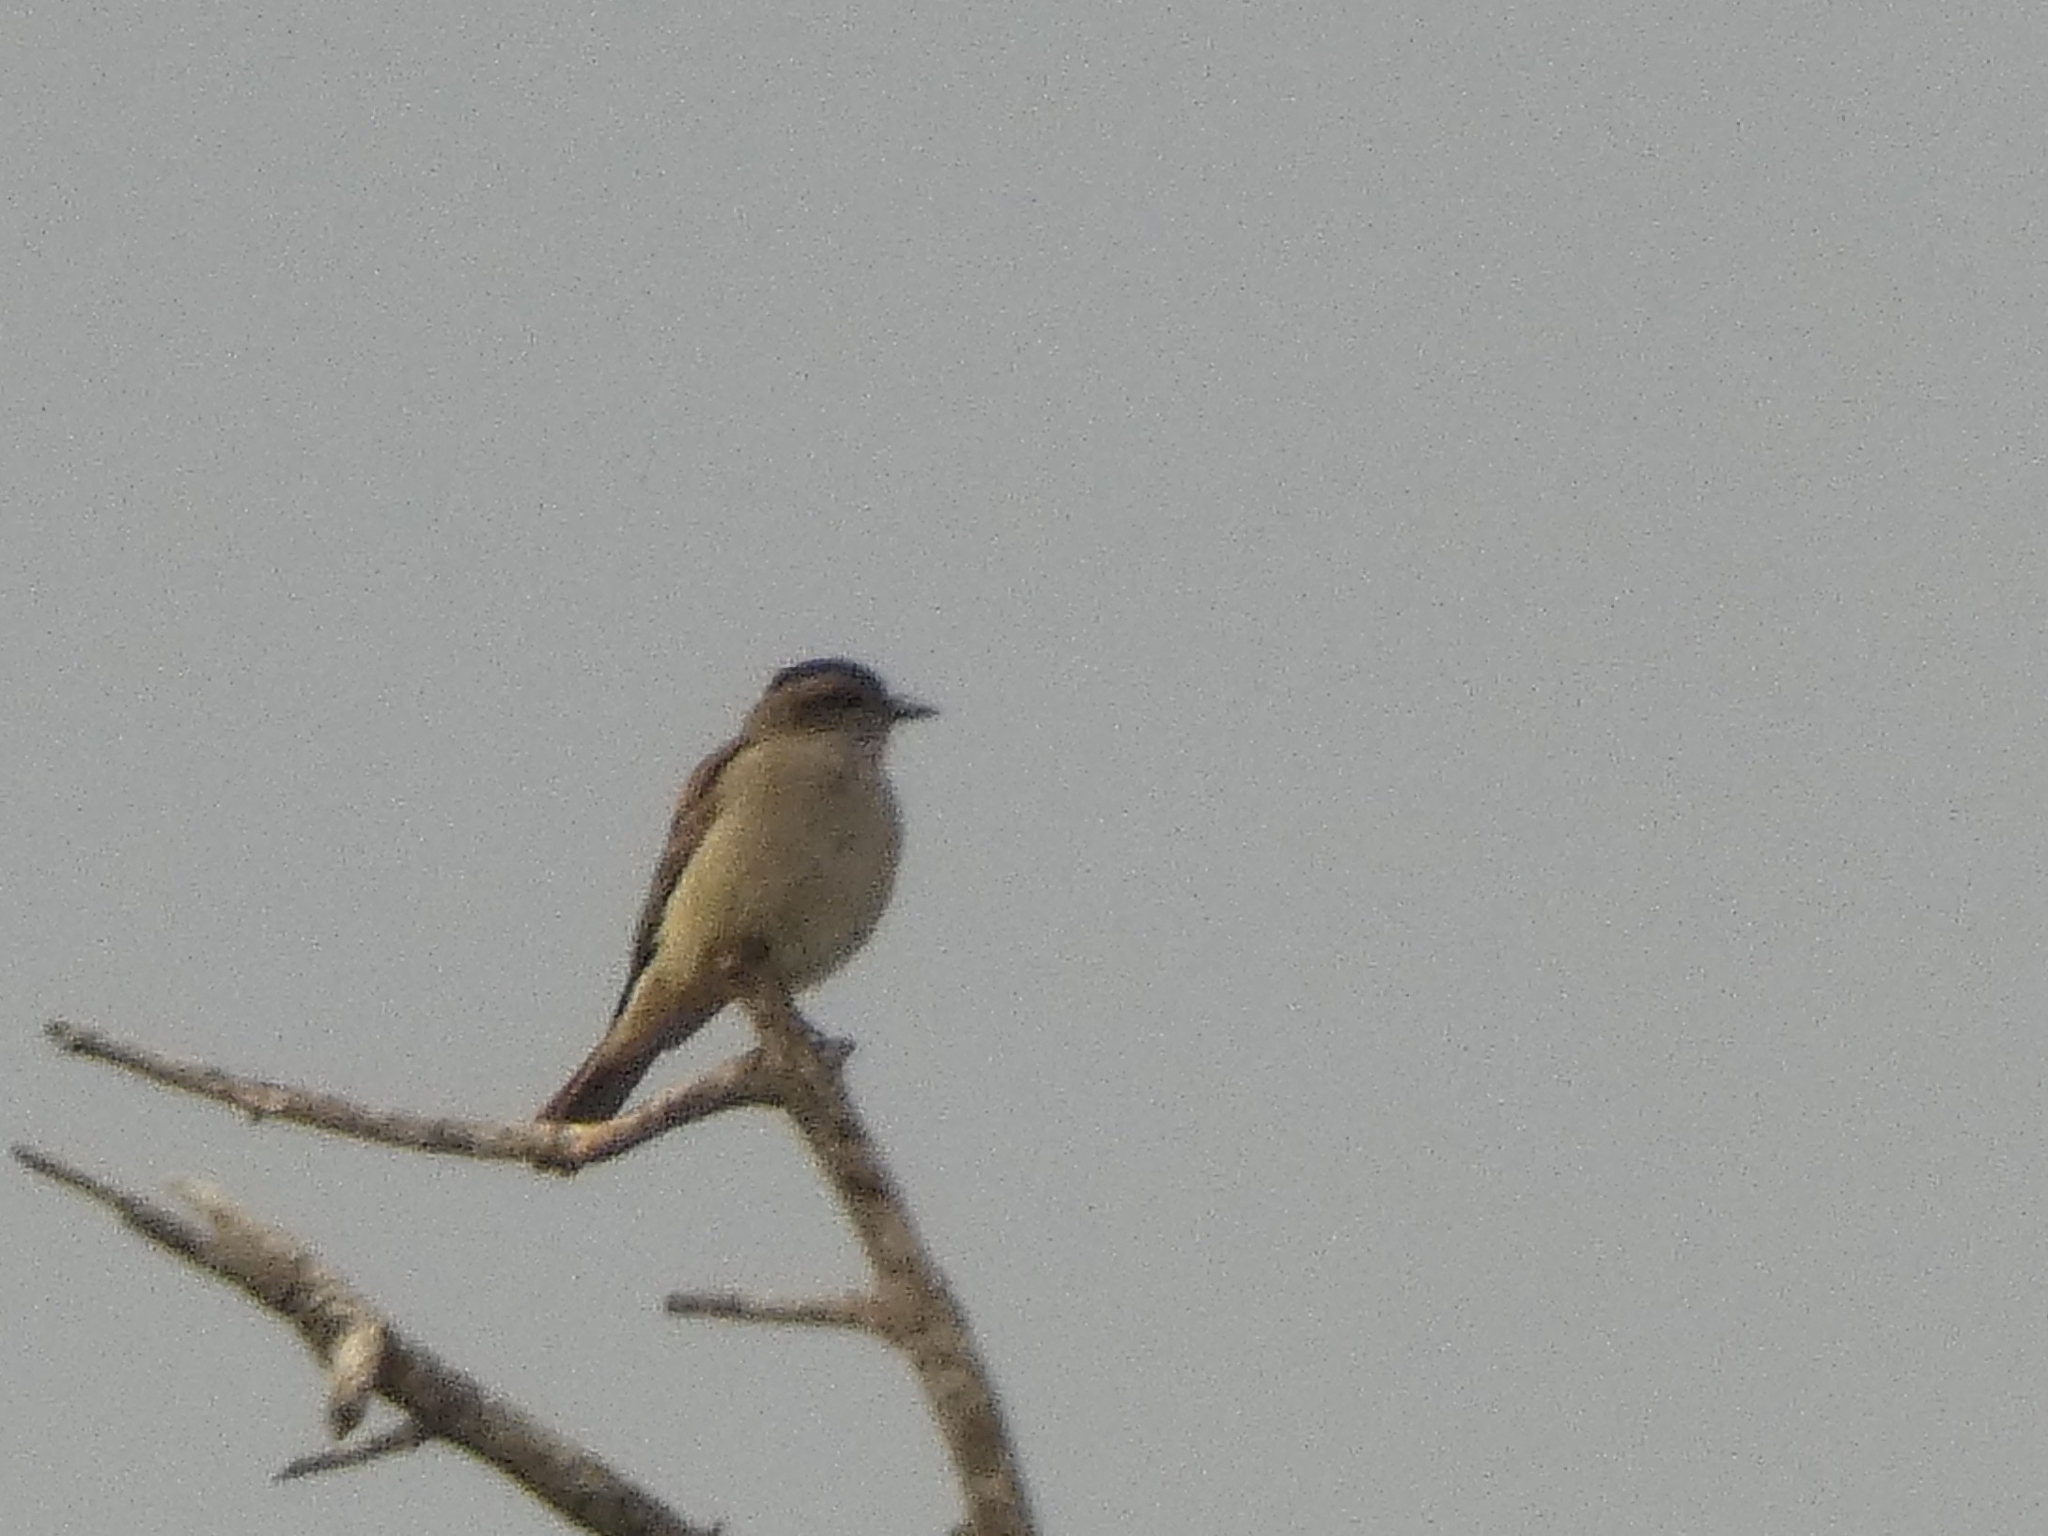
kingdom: Animalia
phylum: Chordata
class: Aves
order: Passeriformes
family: Tyrannidae
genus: Empidonomus
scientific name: Empidonomus aurantioatrocristatus
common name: Crowned slaty flycatcher
